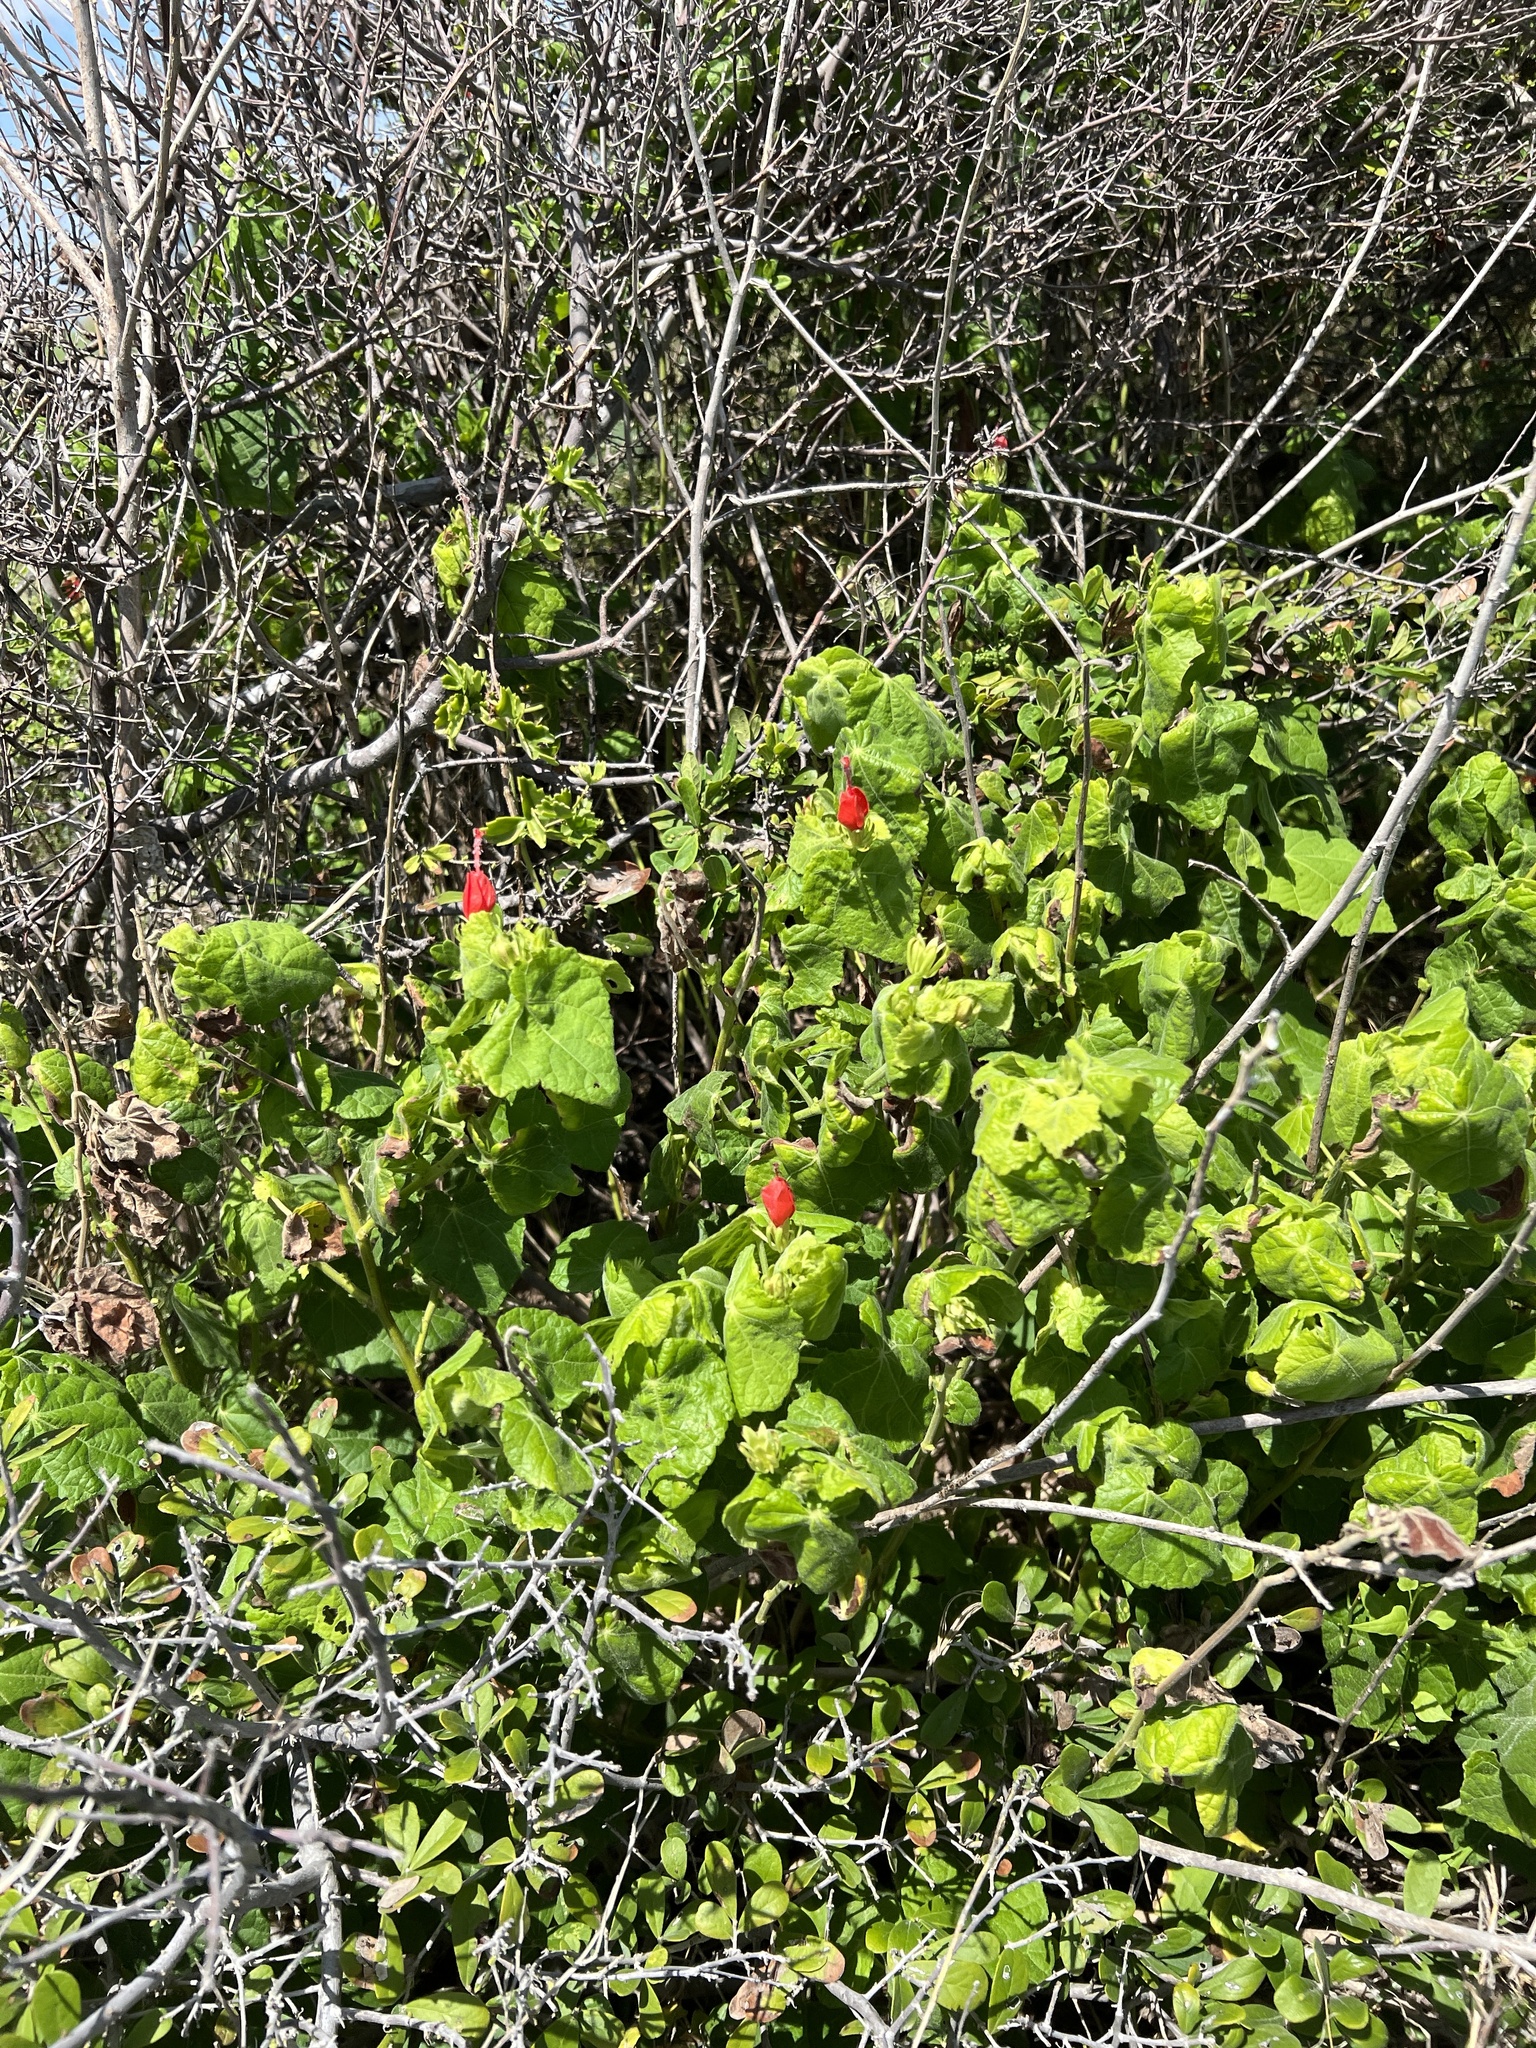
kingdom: Plantae
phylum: Tracheophyta
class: Magnoliopsida
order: Malvales
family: Malvaceae
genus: Malvaviscus
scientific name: Malvaviscus arboreus
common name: Wax mallow
